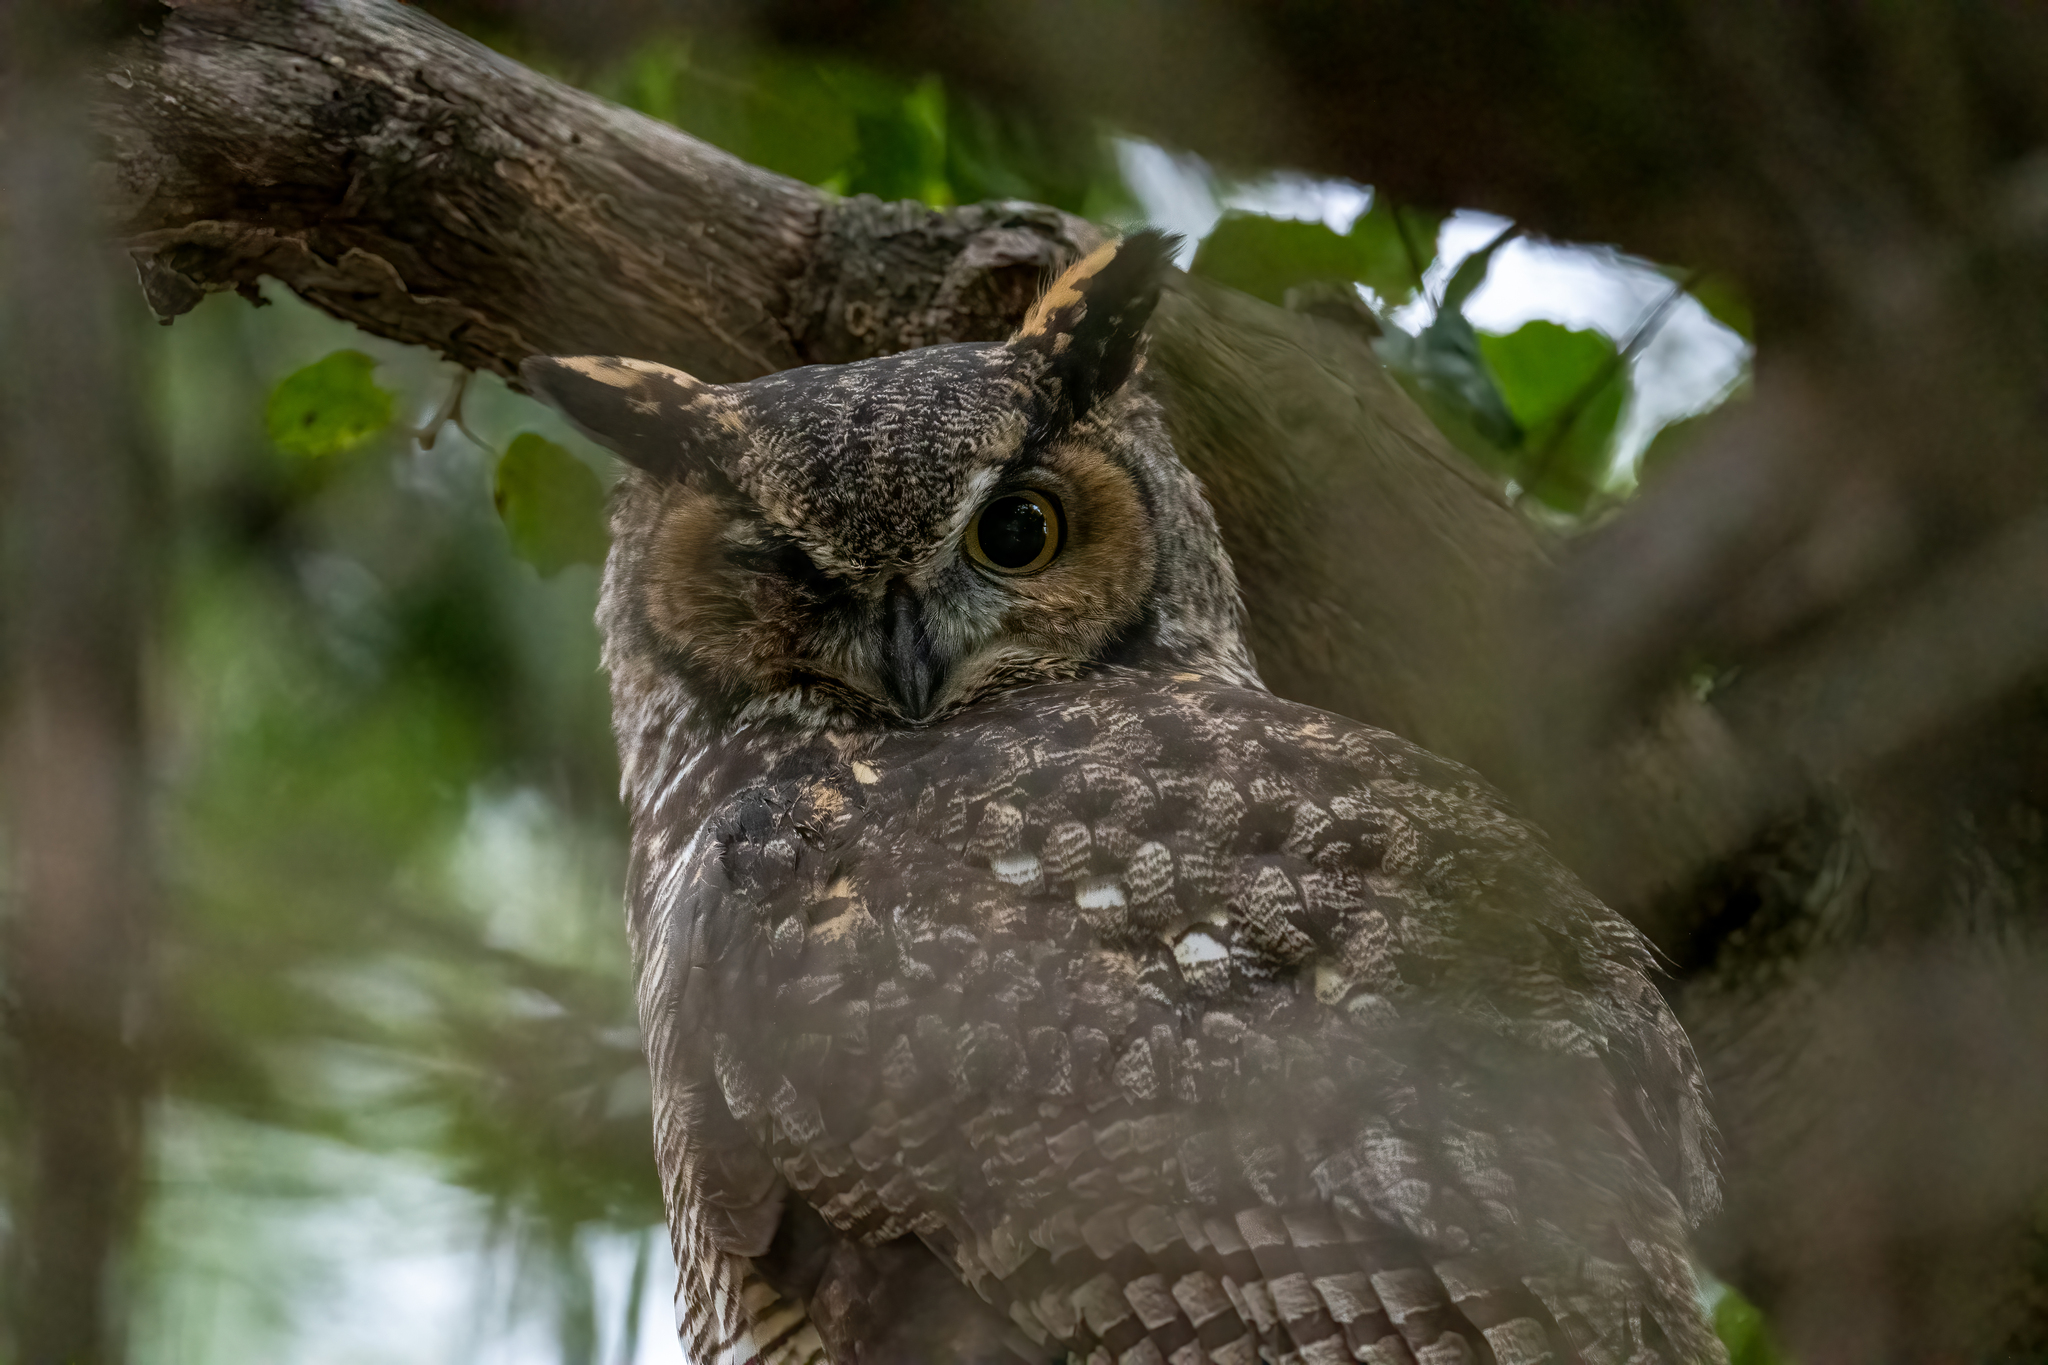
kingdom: Animalia
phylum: Chordata
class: Aves
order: Strigiformes
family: Strigidae
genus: Bubo
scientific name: Bubo virginianus
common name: Great horned owl
